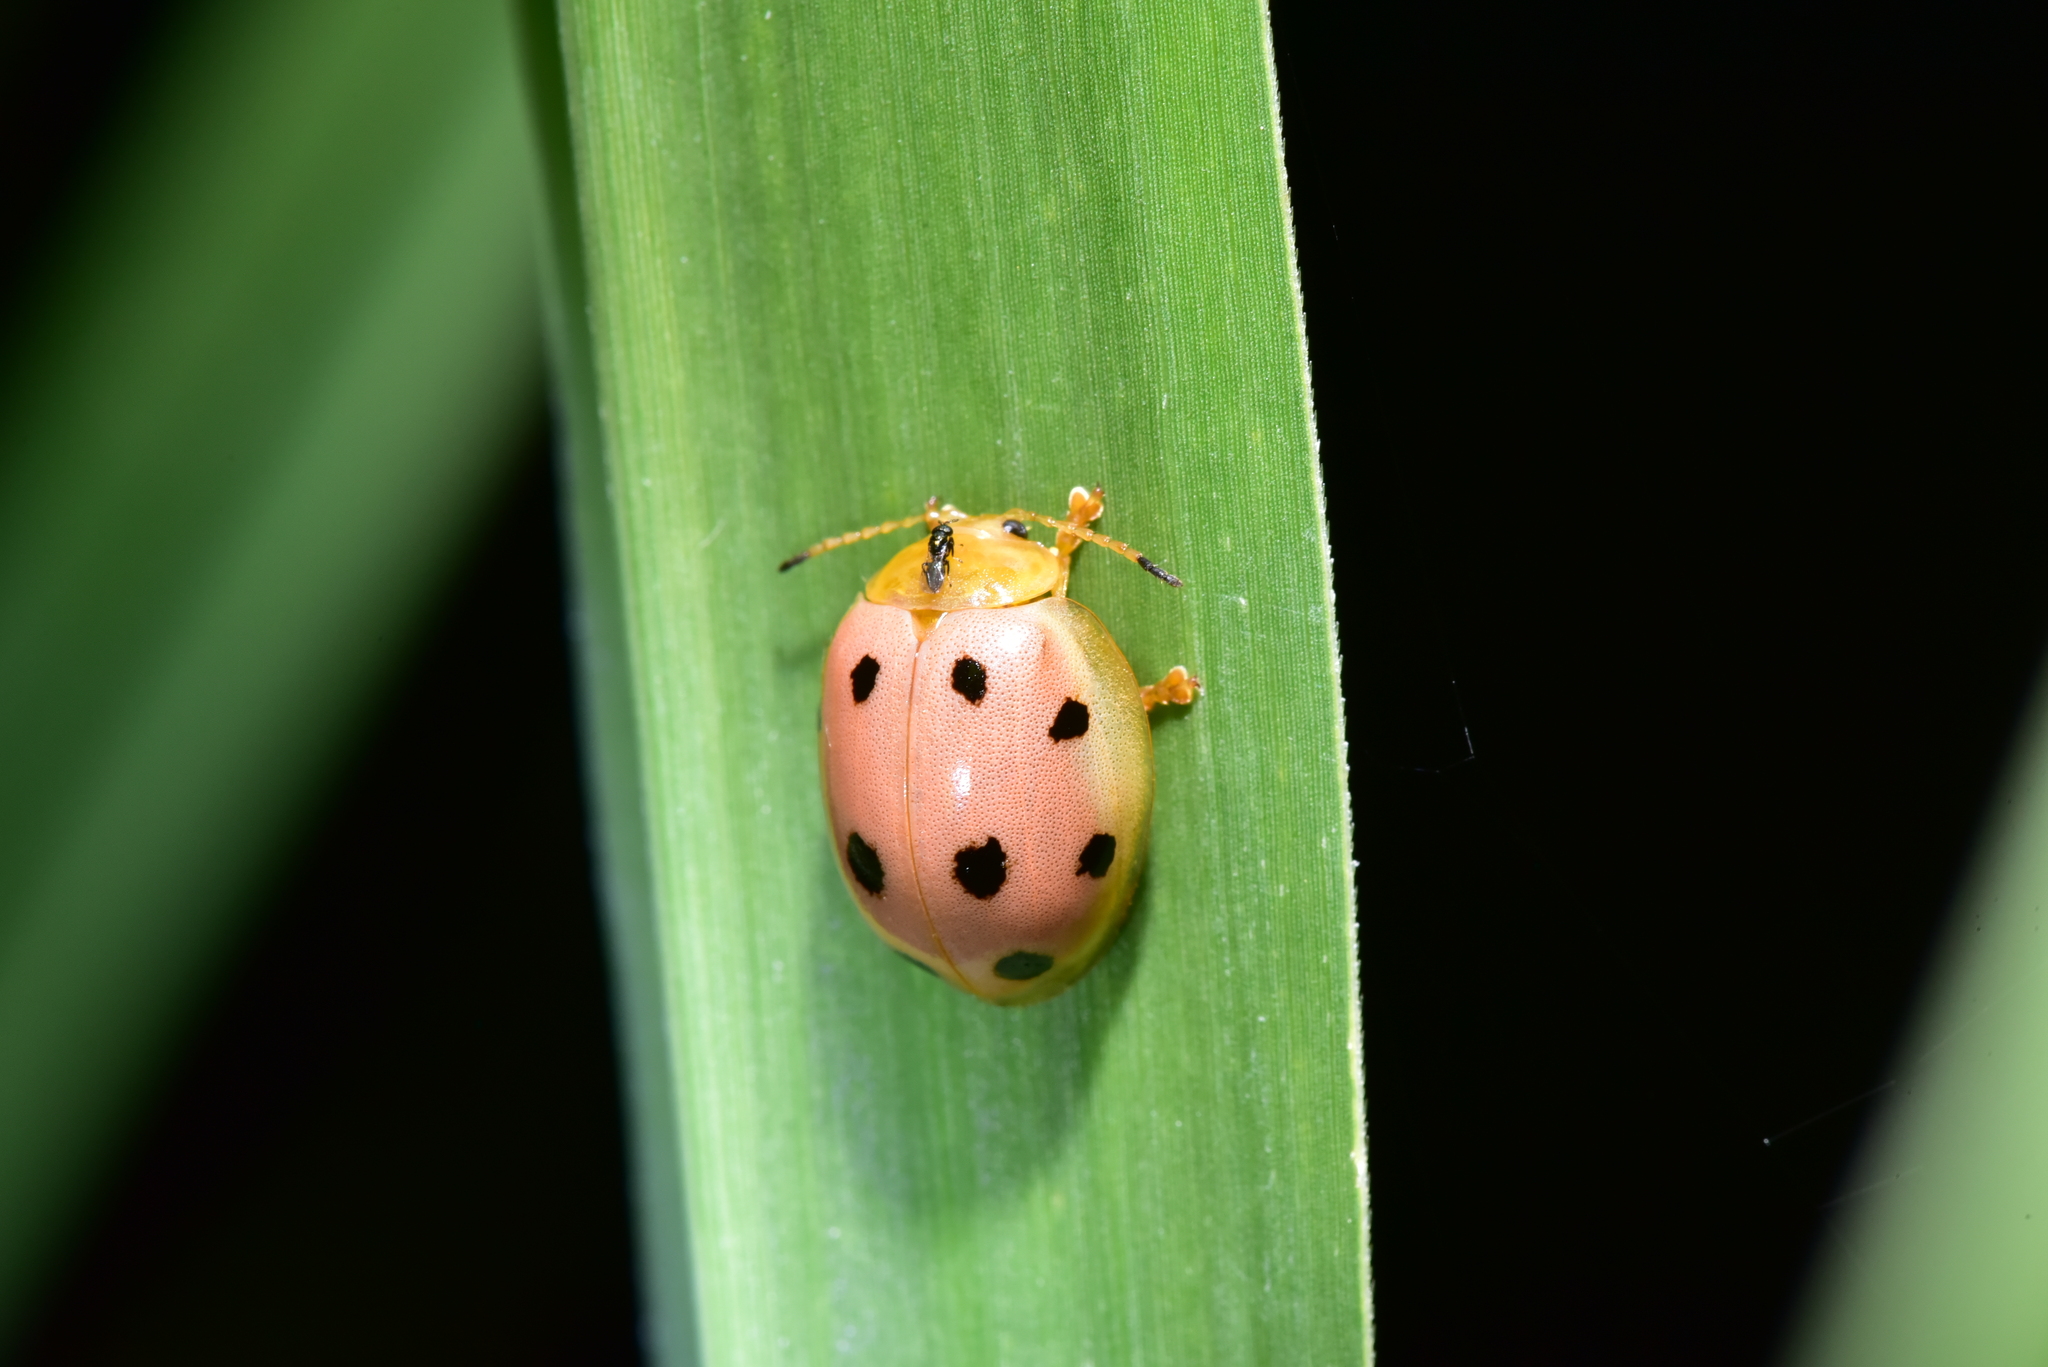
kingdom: Animalia
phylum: Arthropoda
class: Insecta
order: Coleoptera
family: Chrysomelidae
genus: Oides
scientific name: Oides decempunctata
